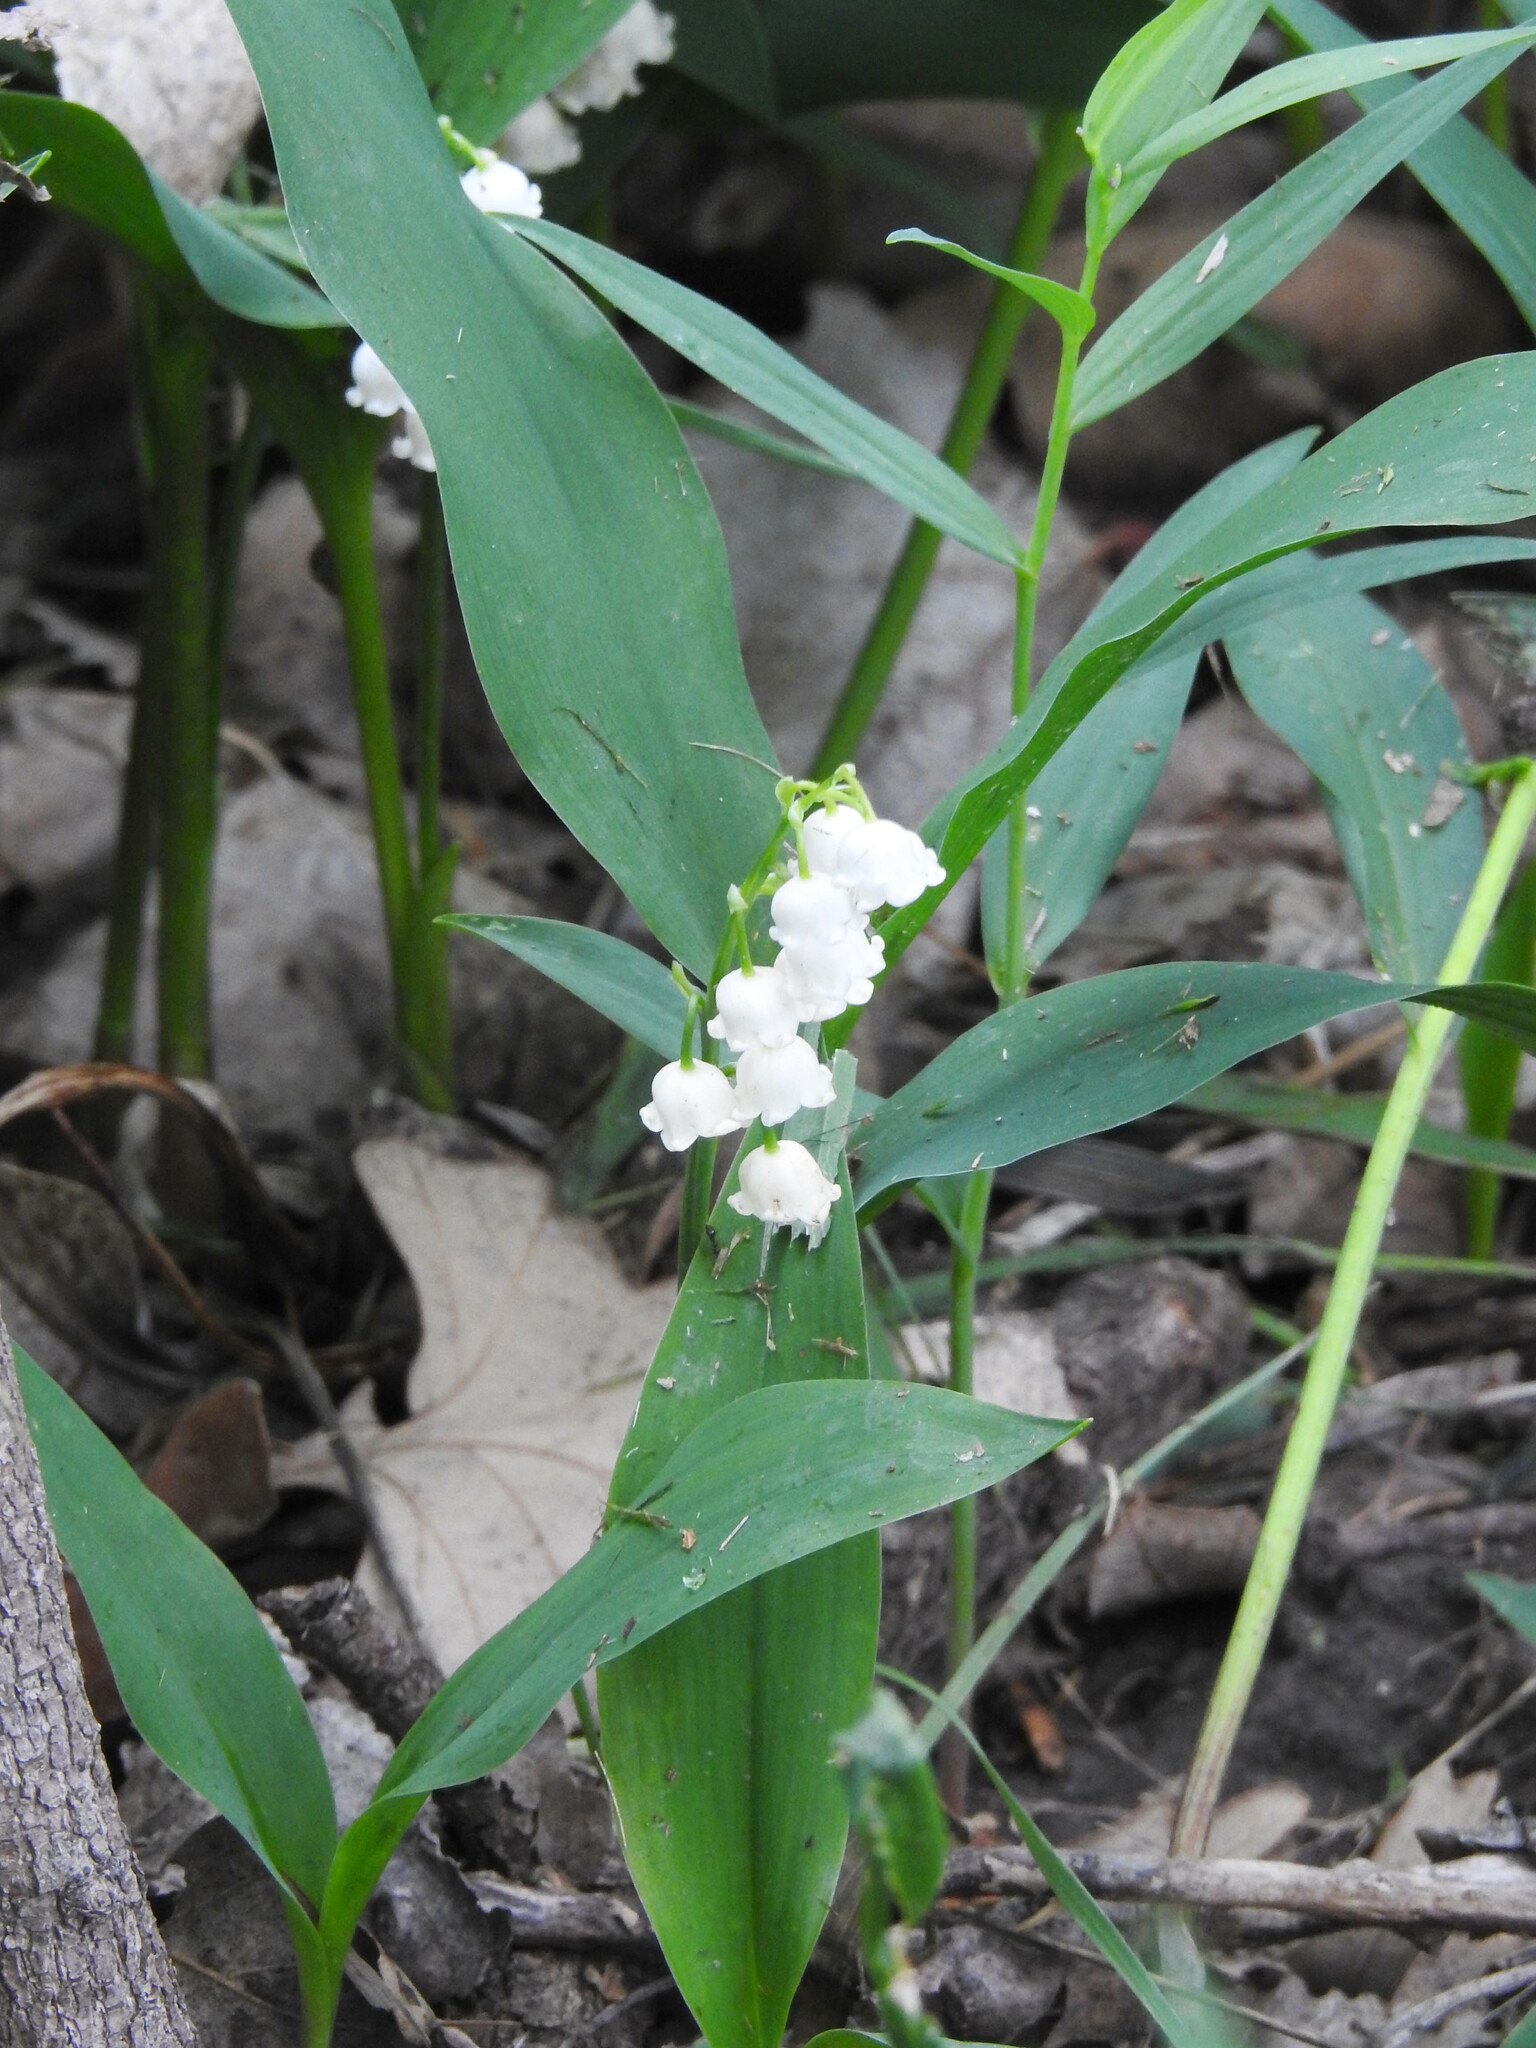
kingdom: Plantae
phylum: Tracheophyta
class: Liliopsida
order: Asparagales
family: Asparagaceae
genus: Convallaria
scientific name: Convallaria majalis
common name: Lily-of-the-valley
